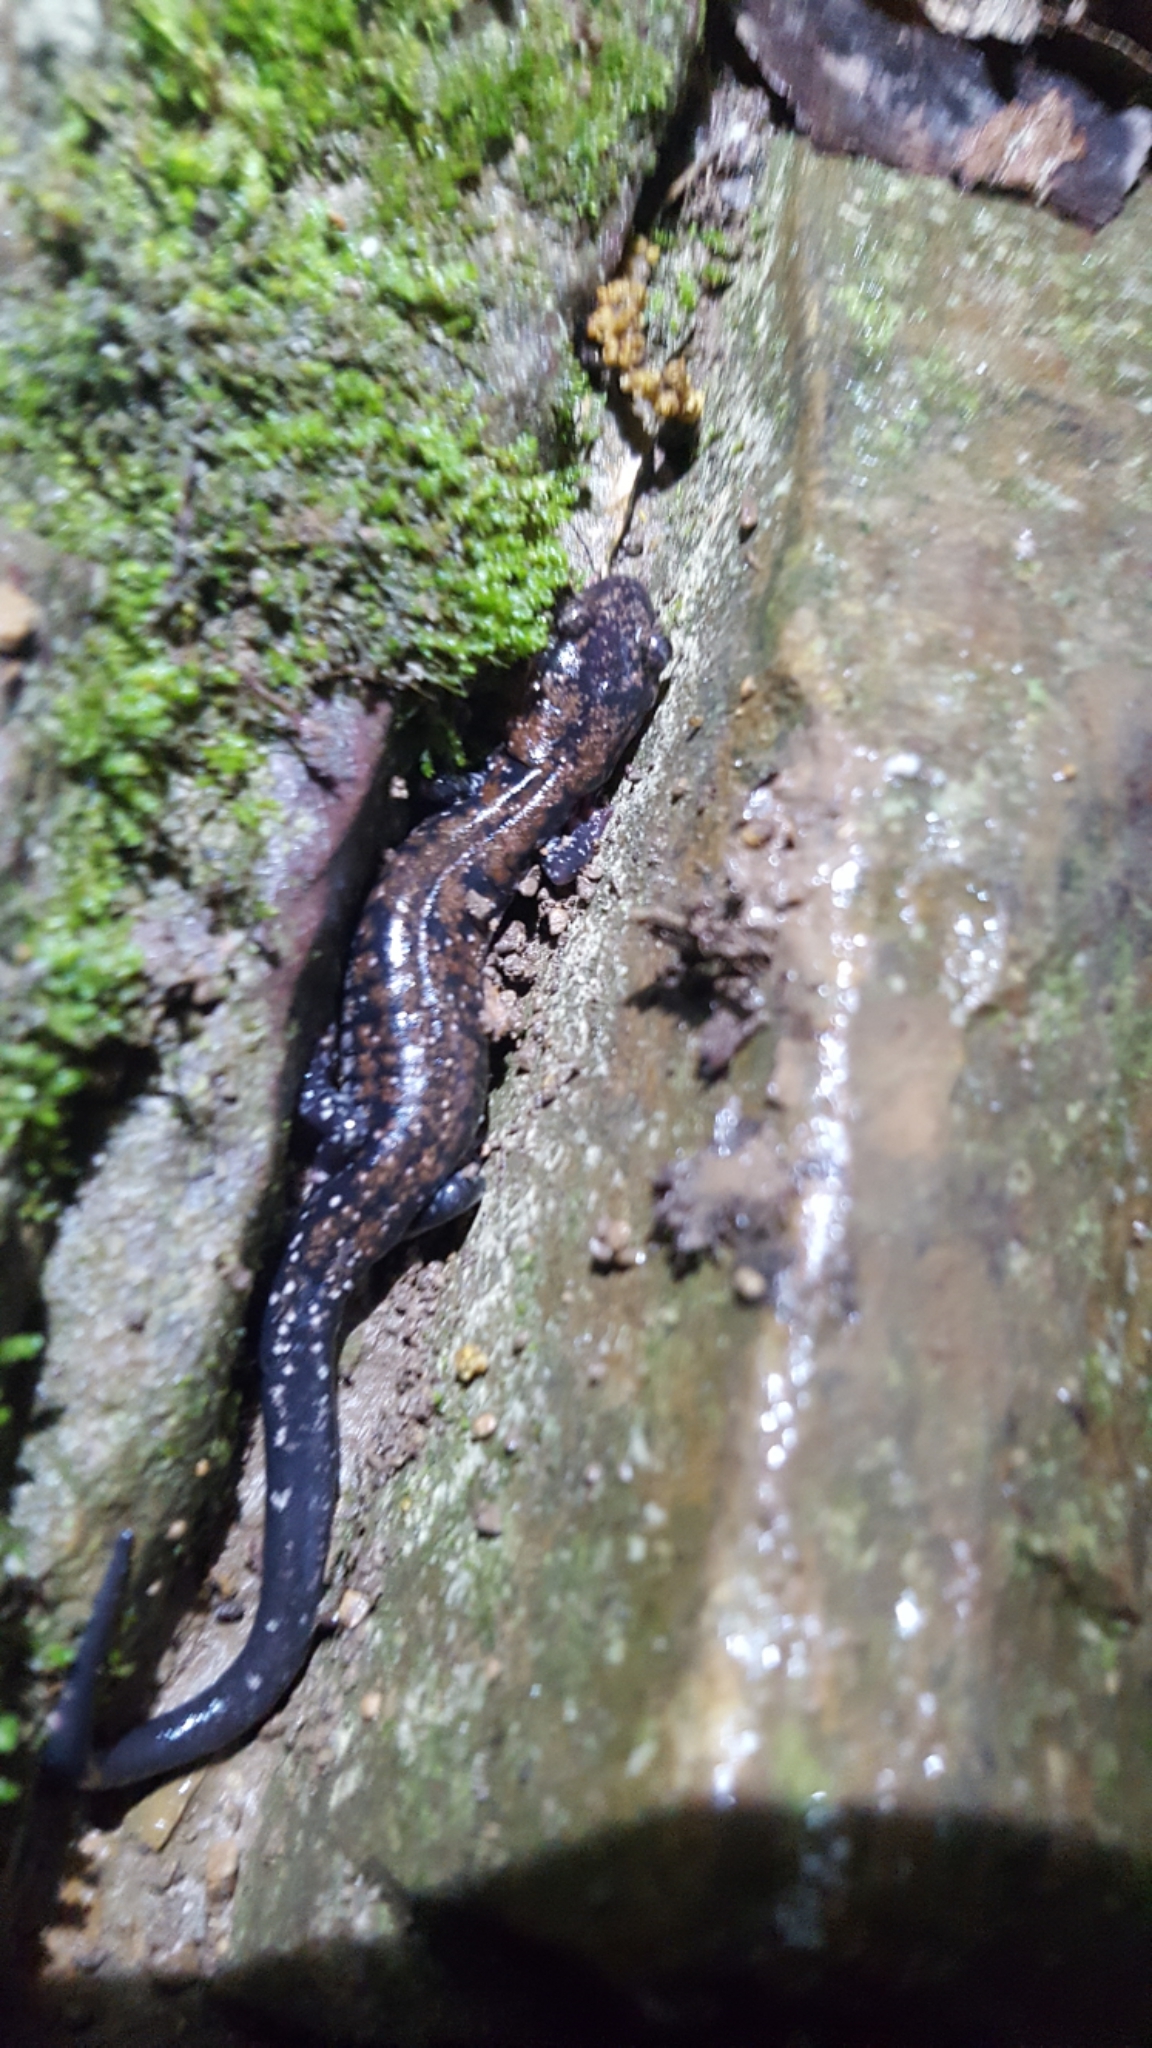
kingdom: Animalia
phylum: Chordata
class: Amphibia
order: Caudata
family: Plethodontidae
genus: Plethodon
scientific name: Plethodon ouachitae
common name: Rich mountain salamander
